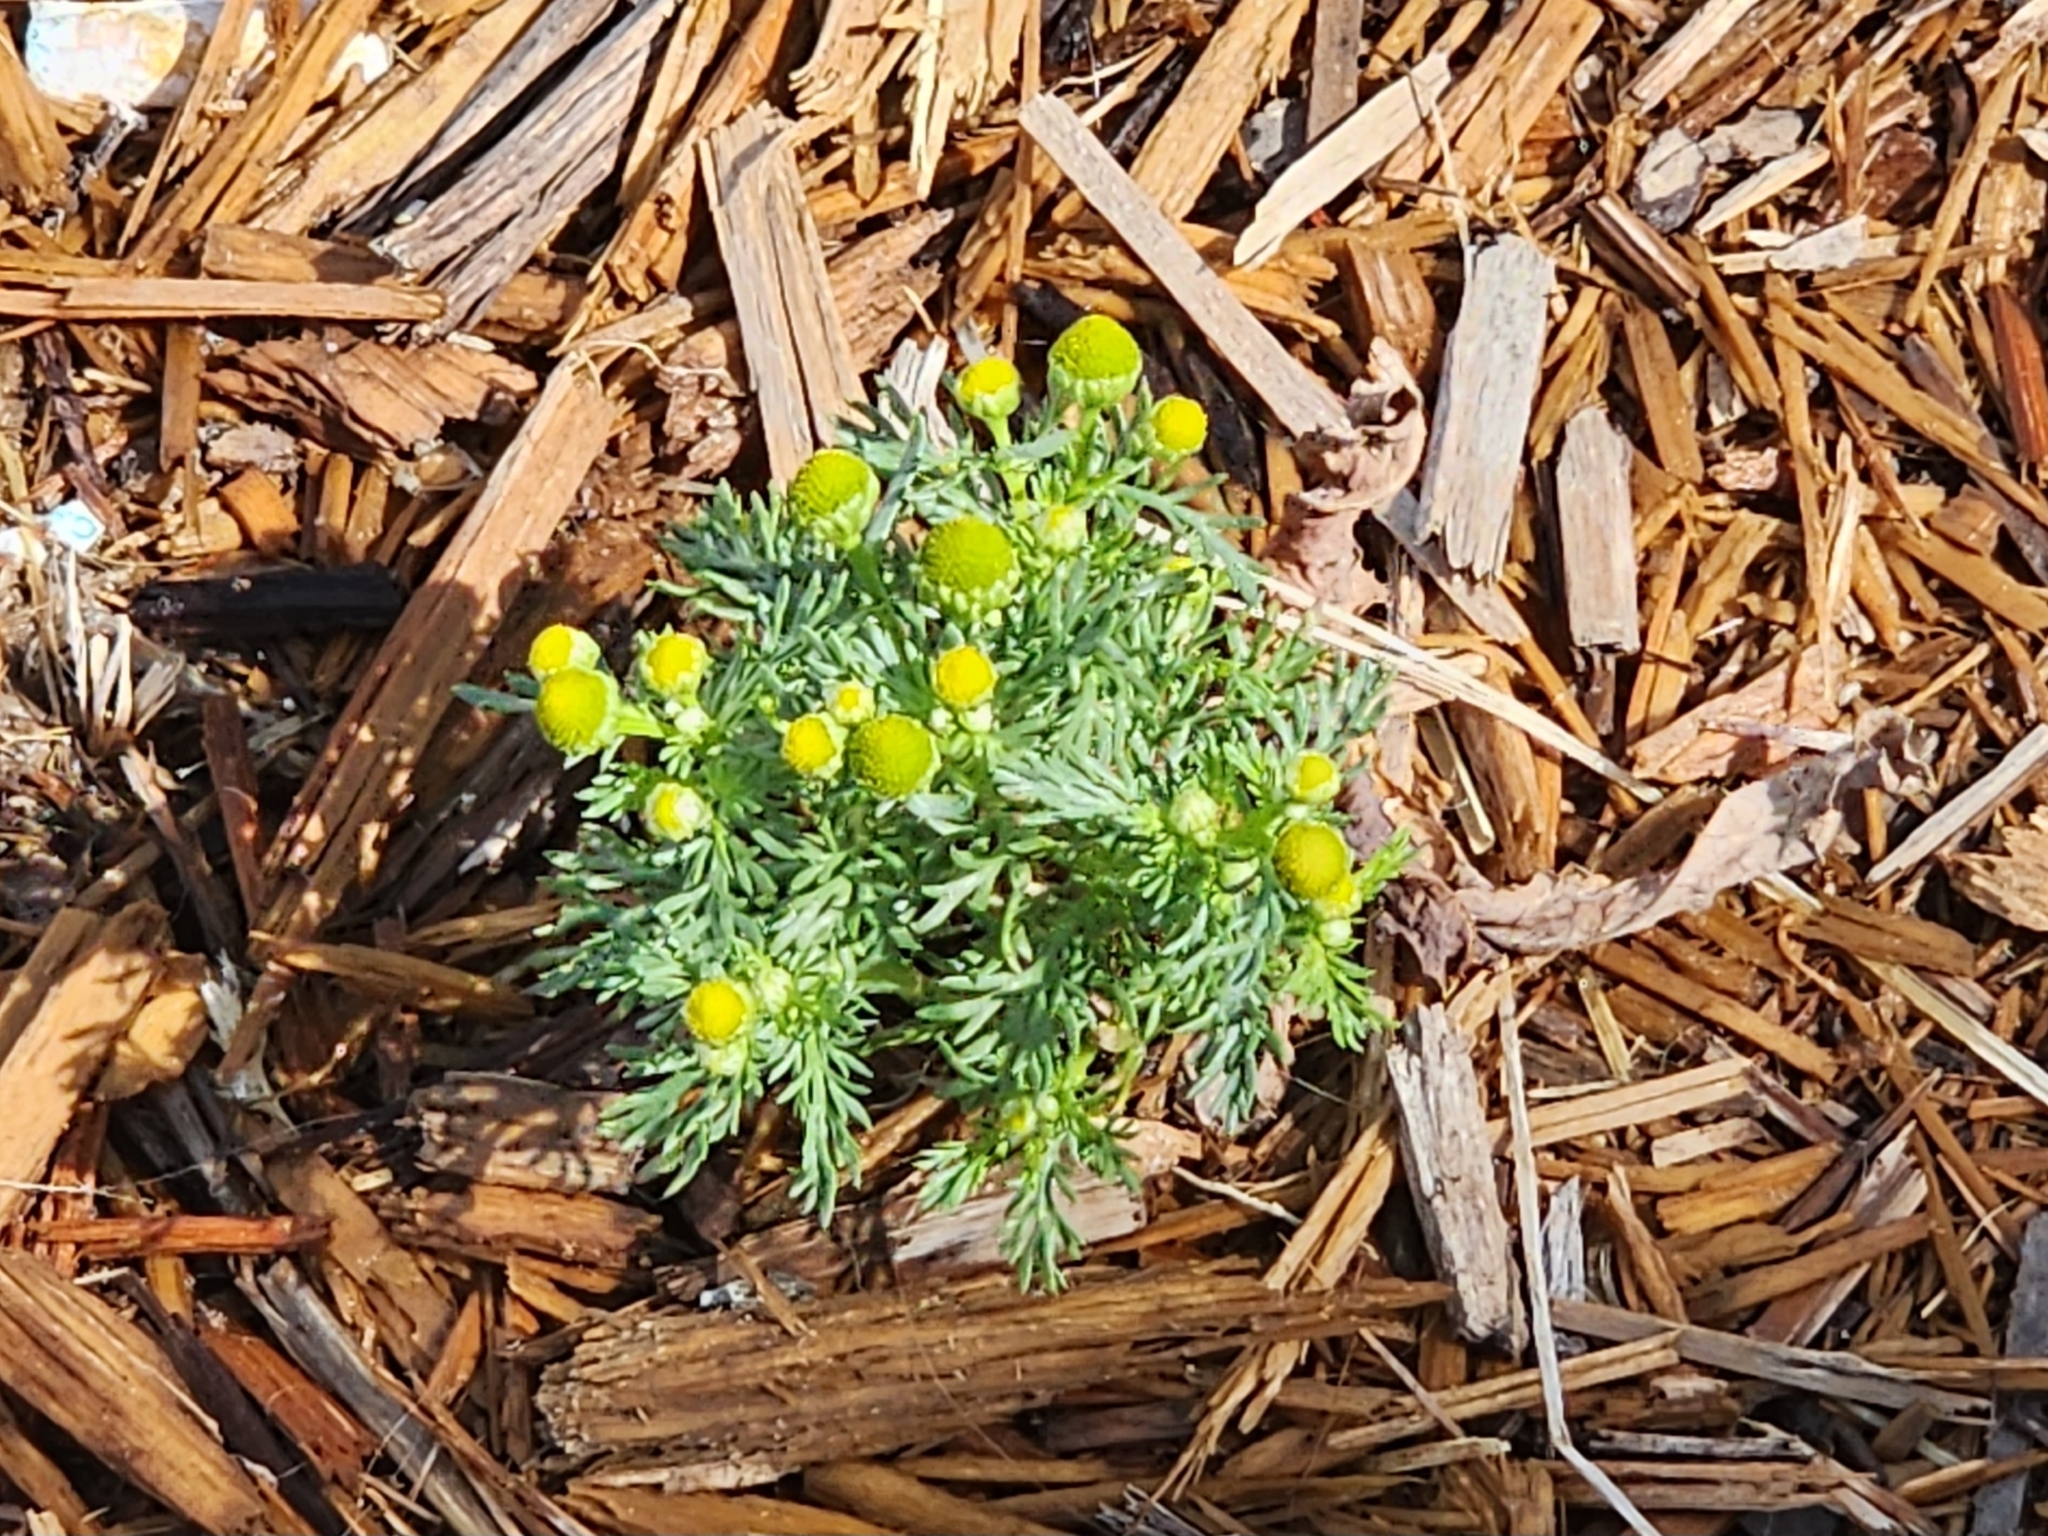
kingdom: Plantae
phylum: Tracheophyta
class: Magnoliopsida
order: Asterales
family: Asteraceae
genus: Matricaria
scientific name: Matricaria discoidea
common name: Disc mayweed
